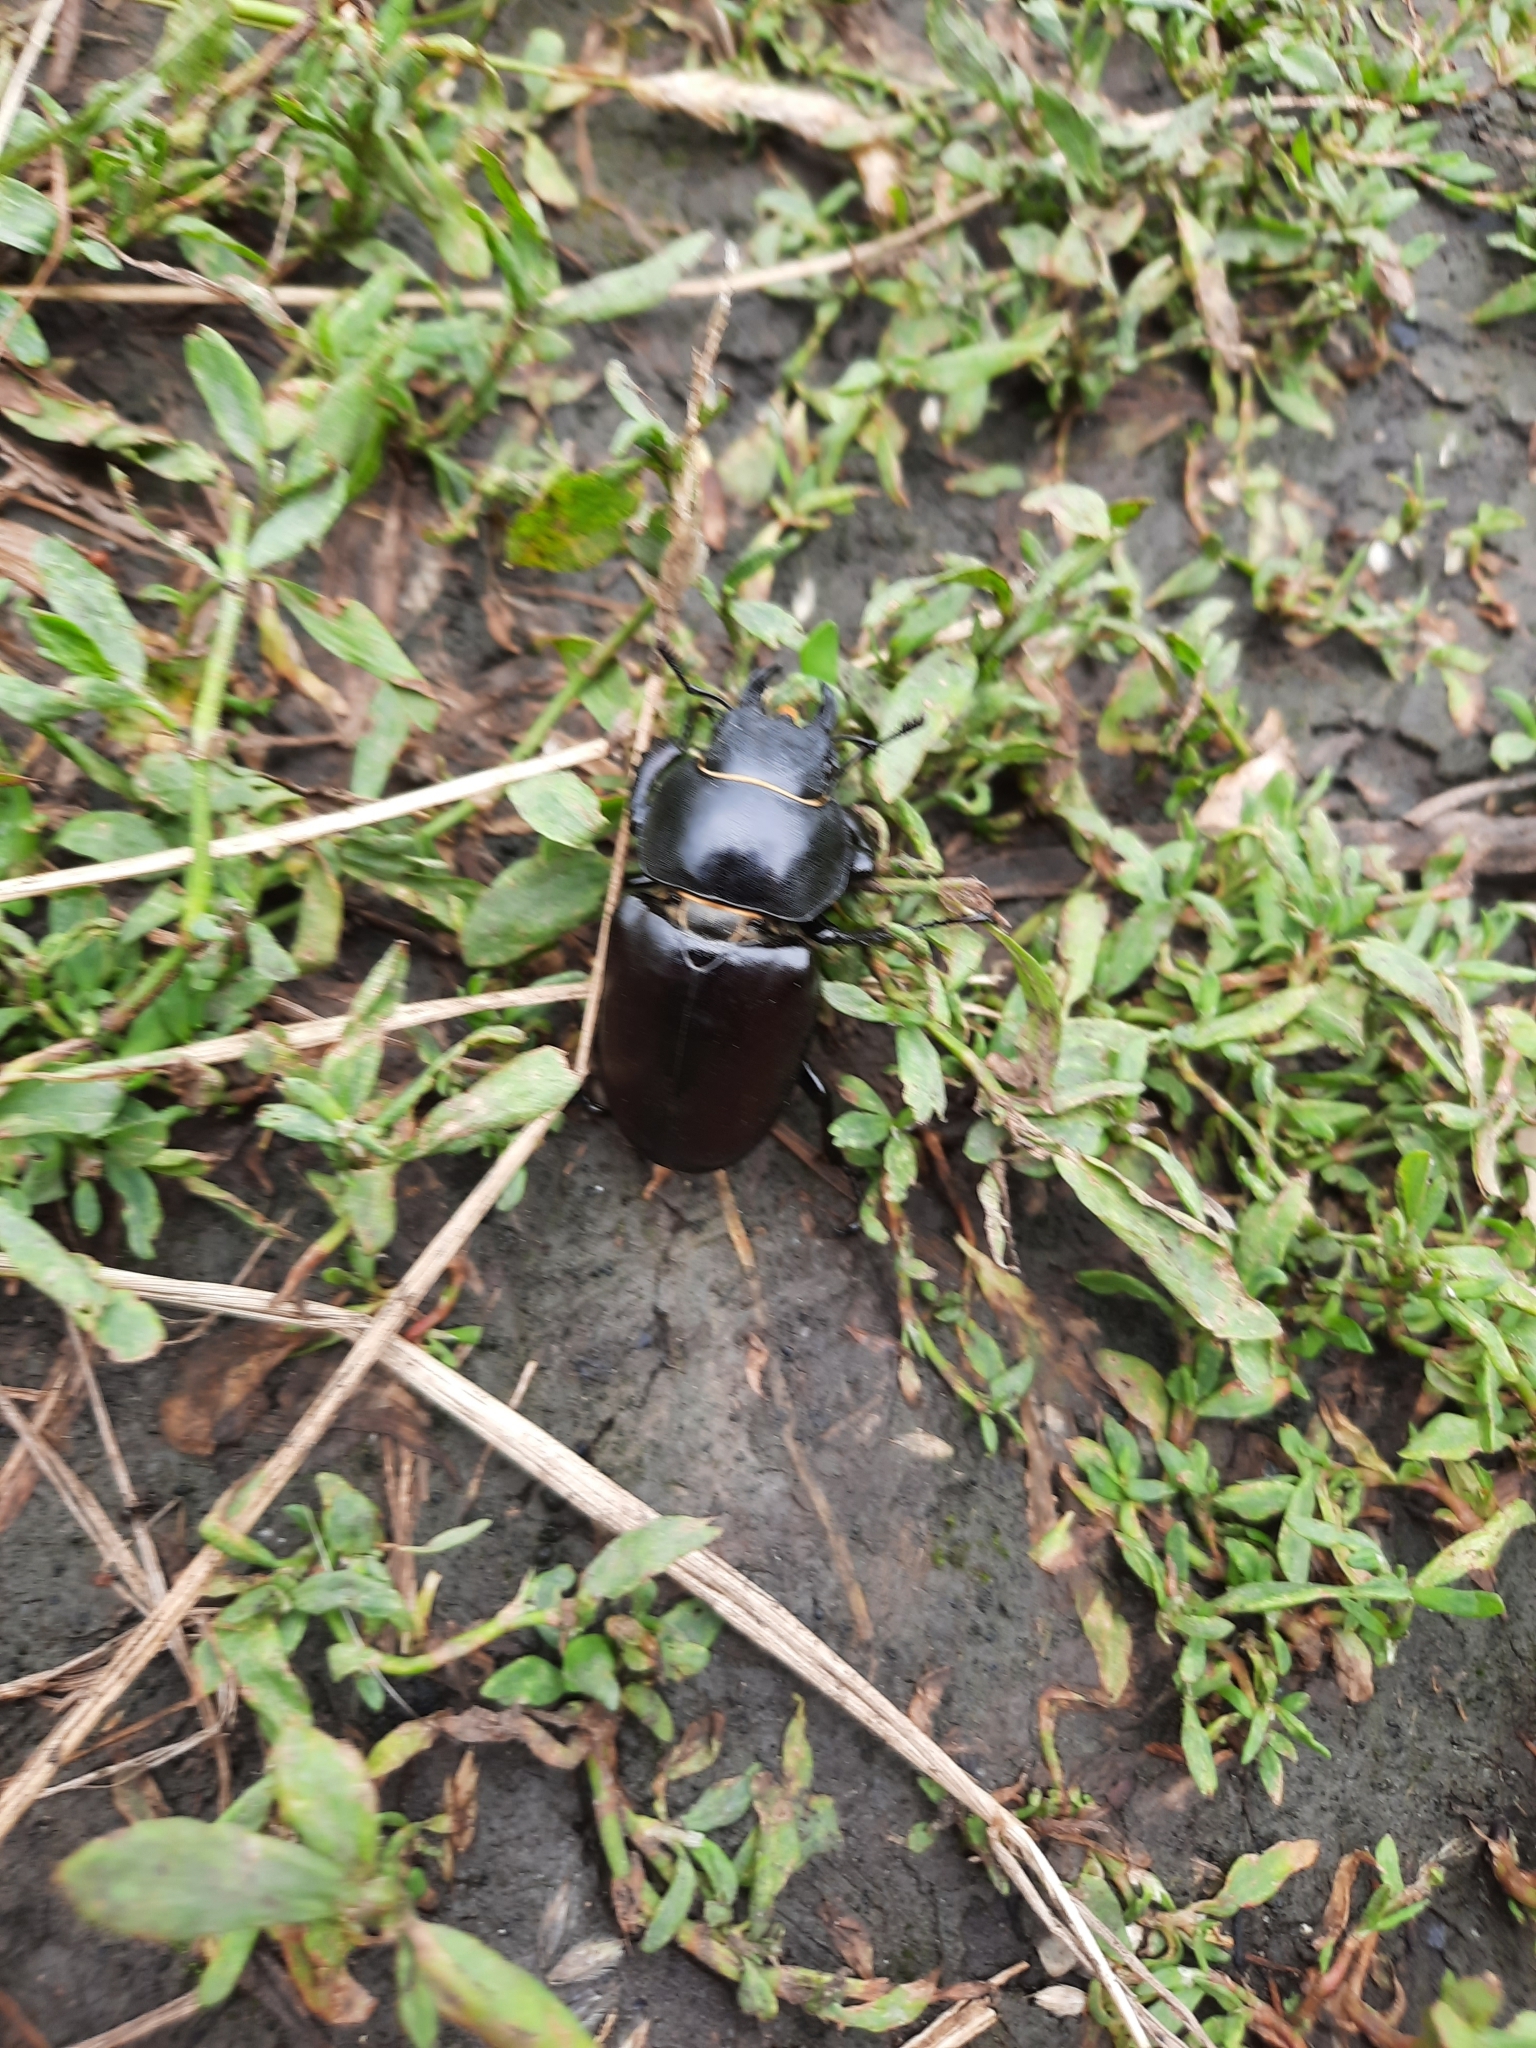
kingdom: Animalia
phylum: Arthropoda
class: Insecta
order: Coleoptera
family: Lucanidae
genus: Lucanus
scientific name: Lucanus cervus
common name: Stag beetle
